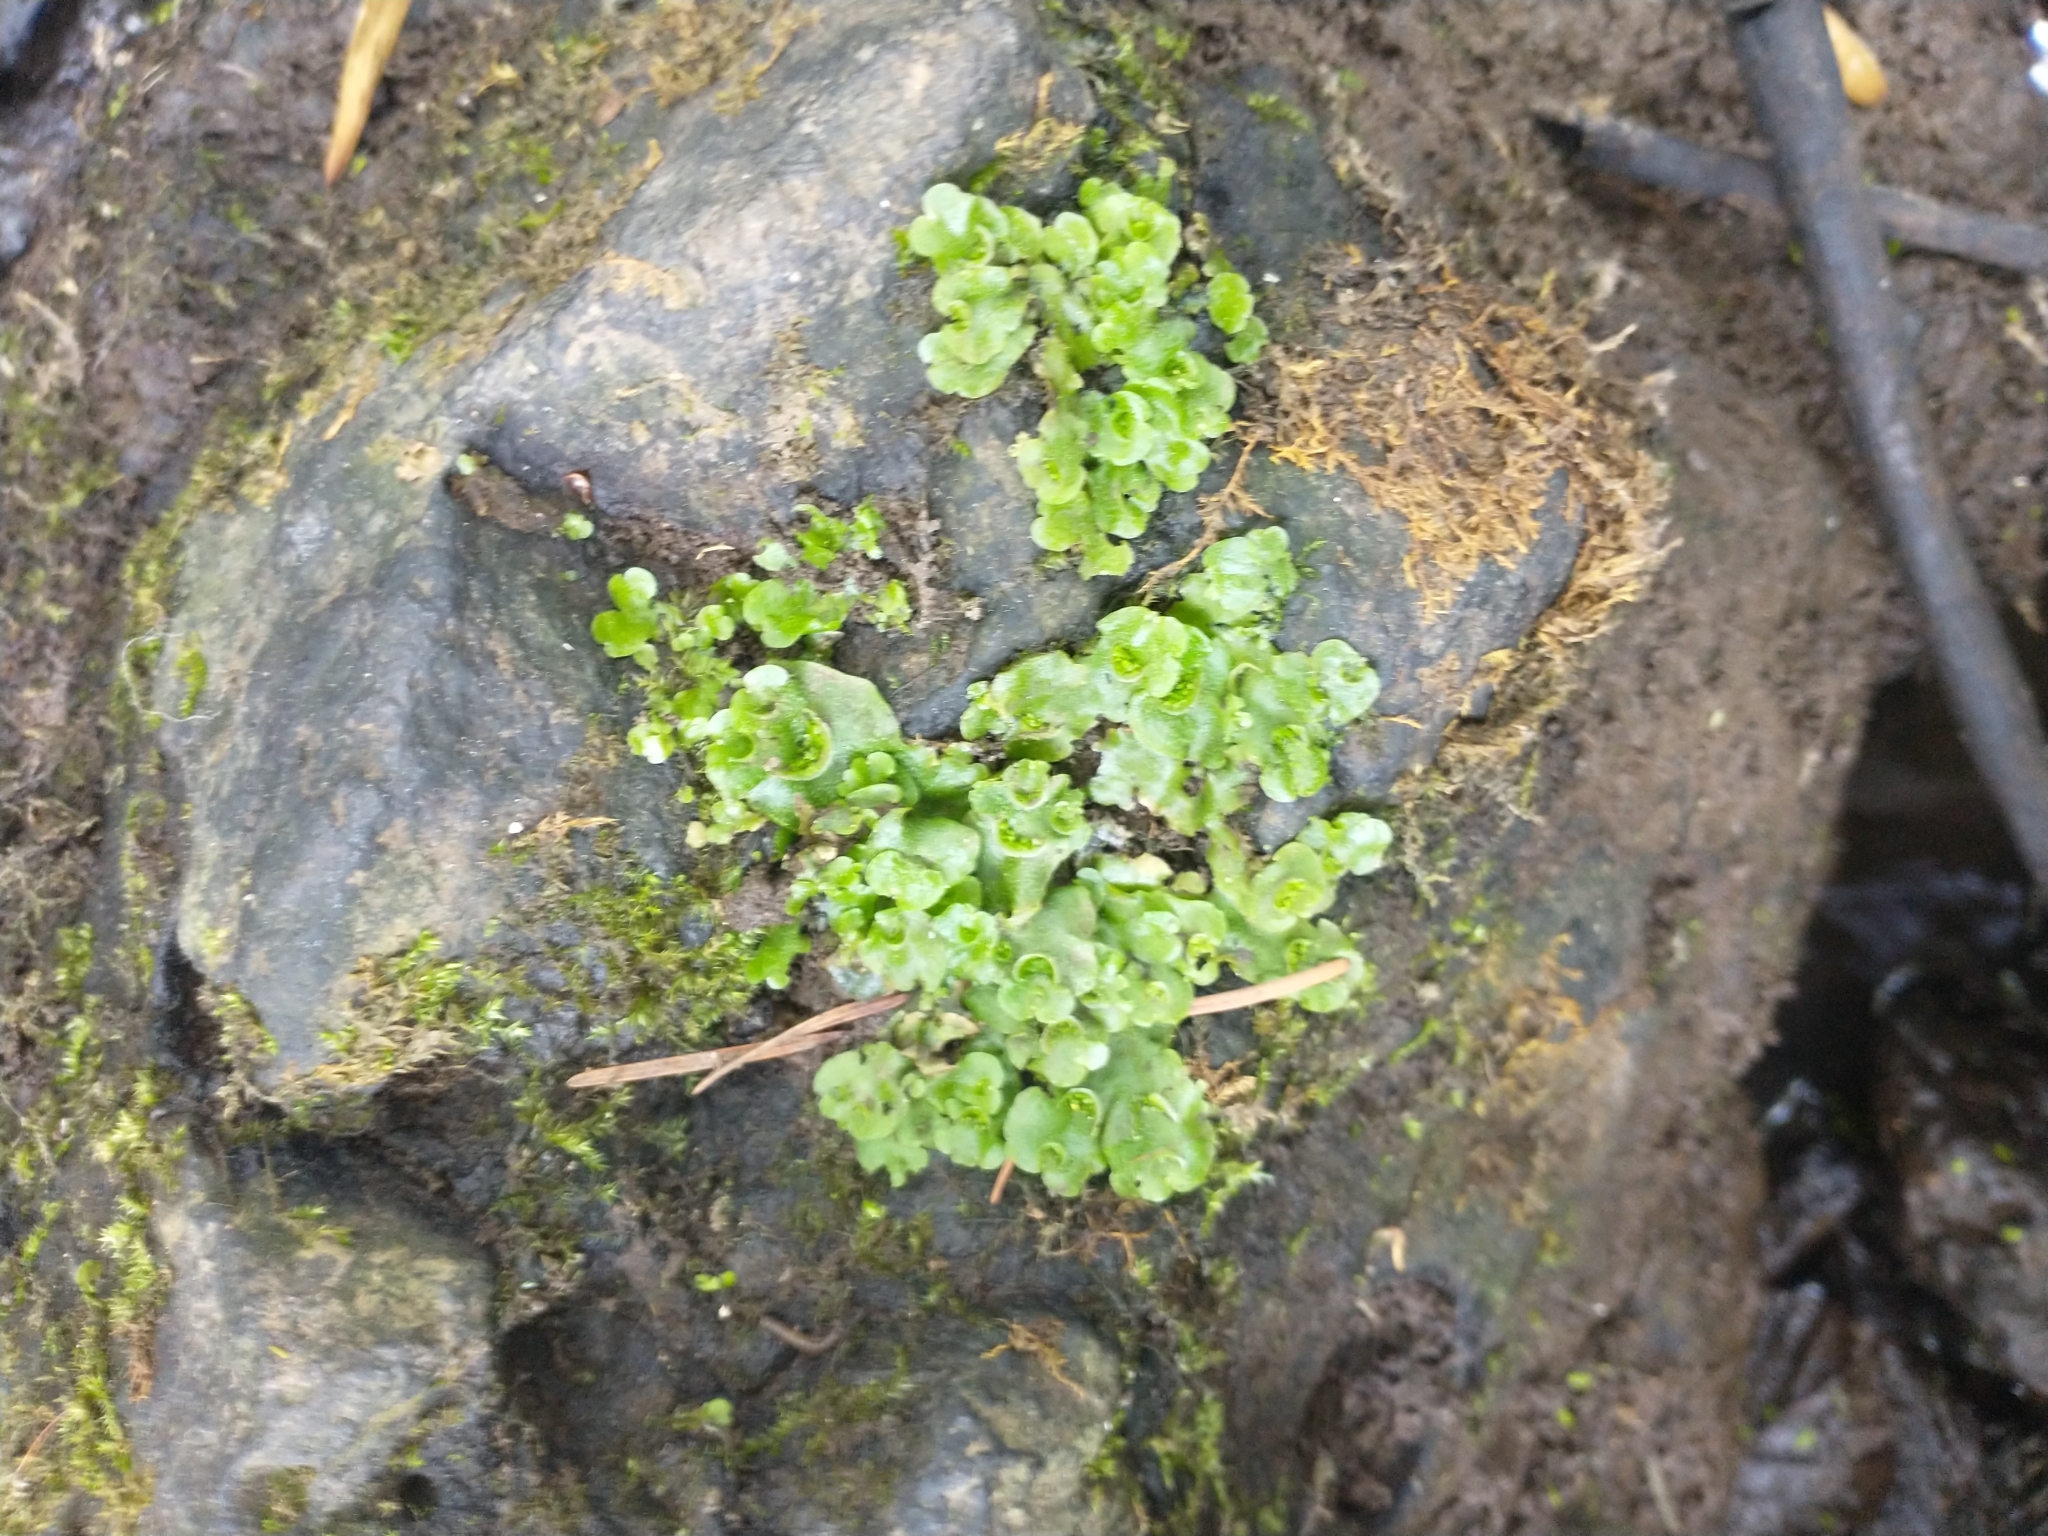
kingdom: Plantae
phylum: Marchantiophyta
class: Marchantiopsida
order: Lunulariales
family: Lunulariaceae
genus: Lunularia
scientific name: Lunularia cruciata
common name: Crescent-cup liverwort
